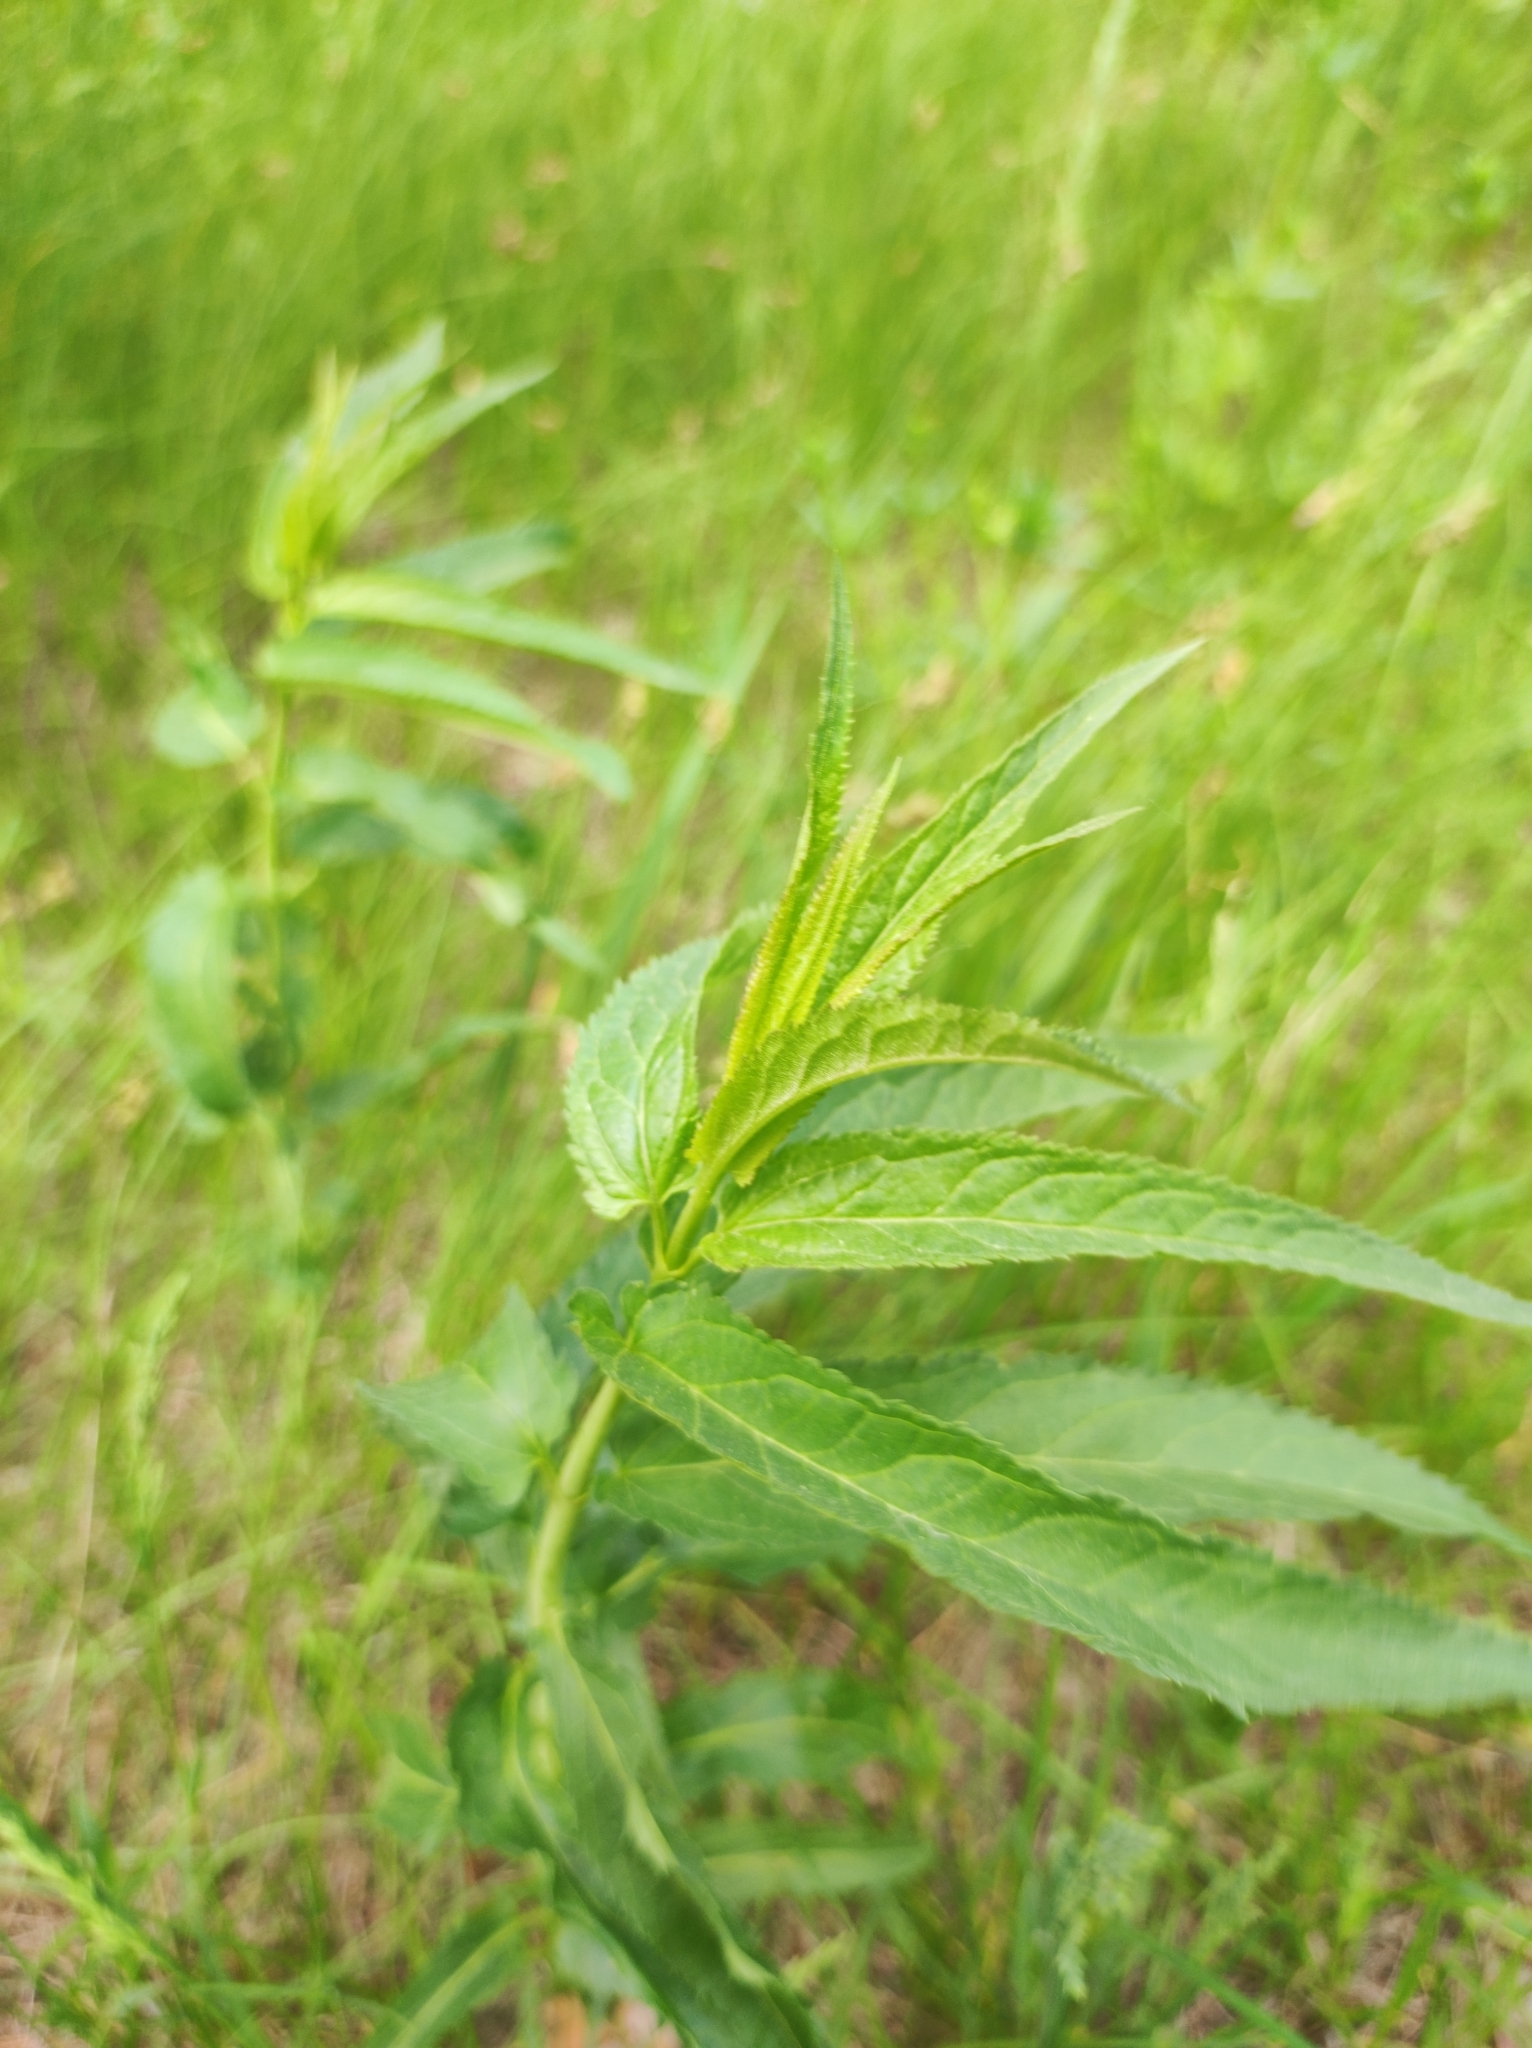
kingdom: Plantae
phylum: Tracheophyta
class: Magnoliopsida
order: Lamiales
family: Plantaginaceae
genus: Veronica
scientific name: Veronica longifolia
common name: Garden speedwell
